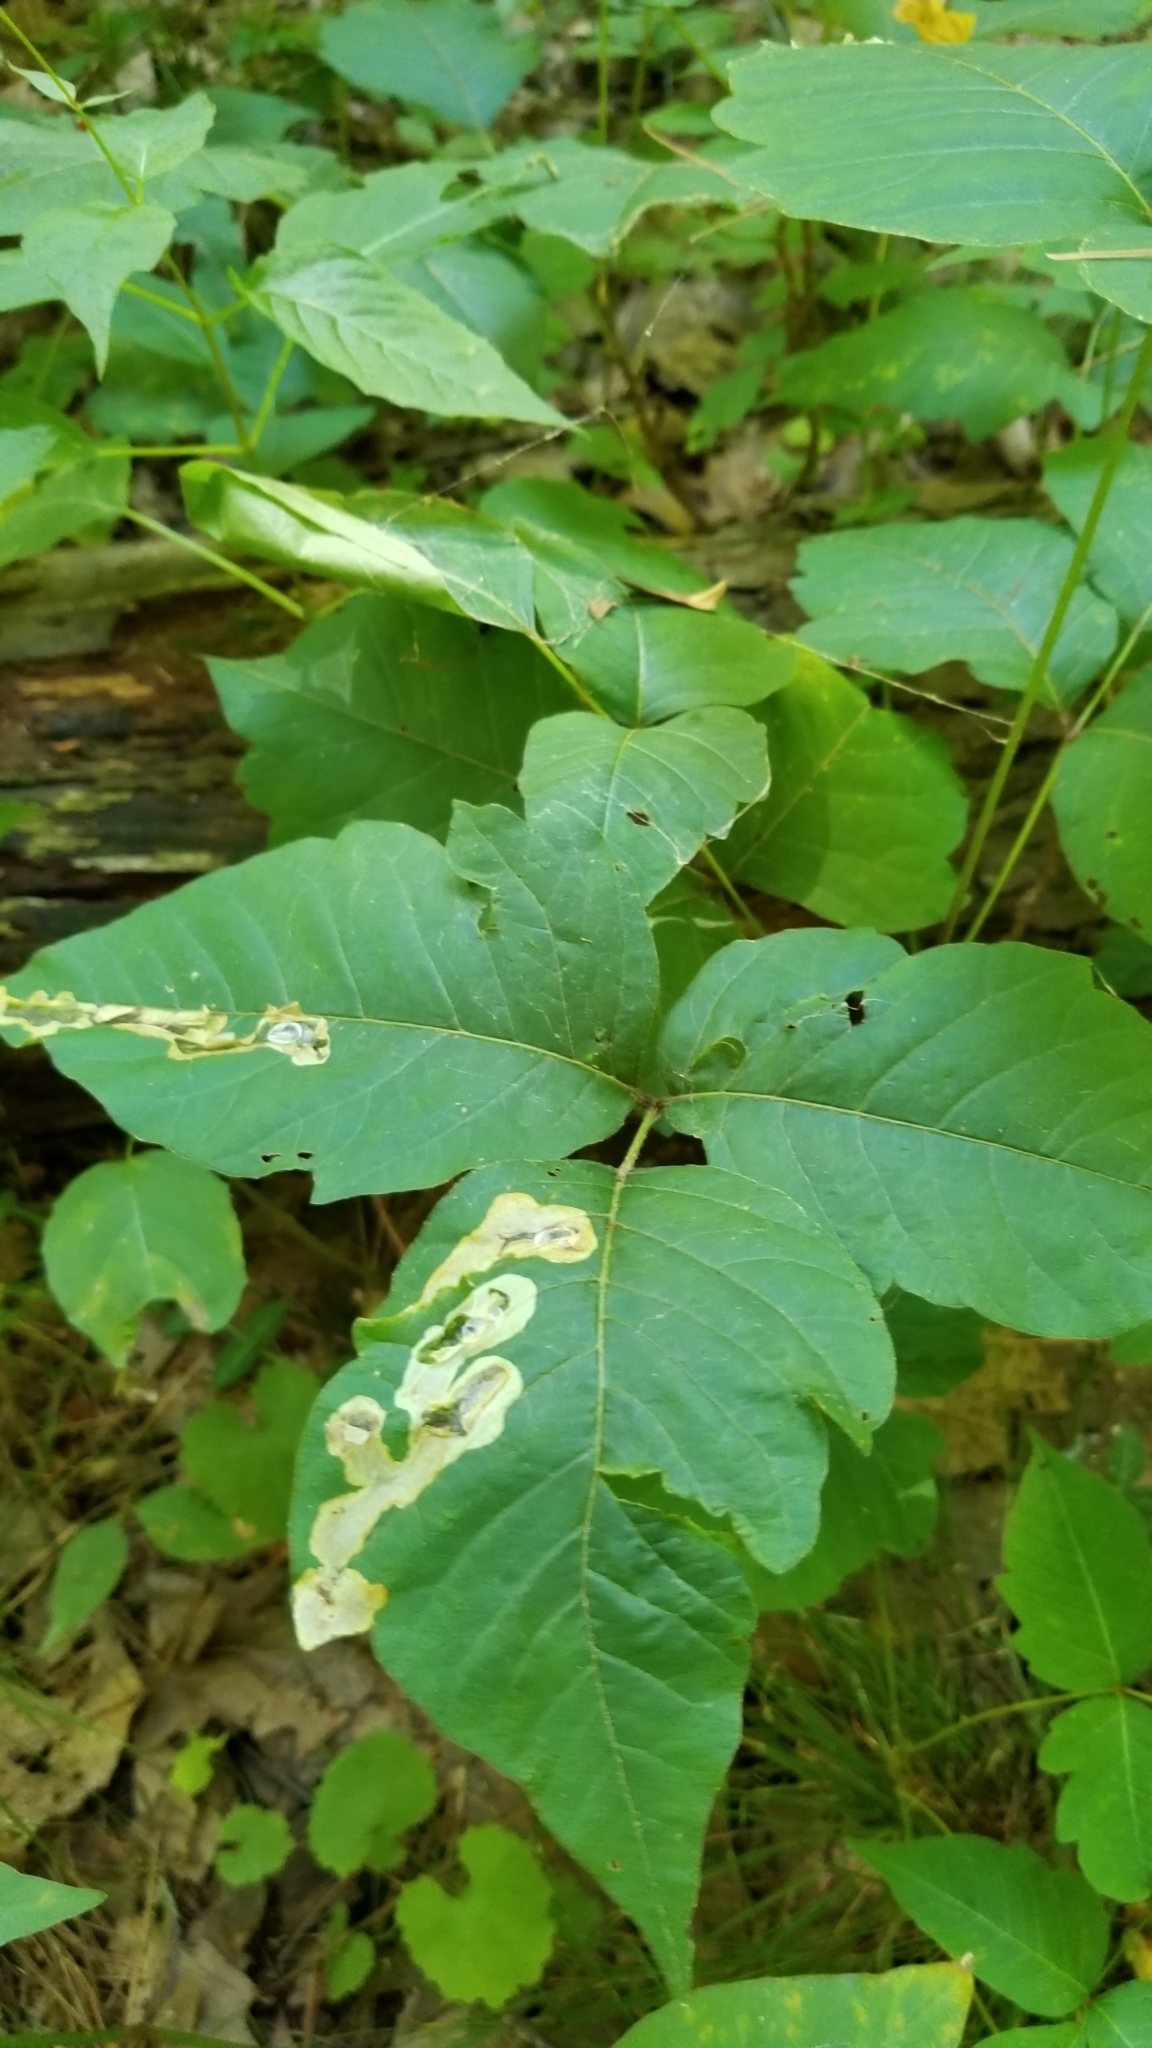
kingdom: Animalia
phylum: Arthropoda
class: Insecta
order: Lepidoptera
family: Gracillariidae
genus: Cameraria
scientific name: Cameraria guttifinitella
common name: Poison ivy leaf-miner moth
